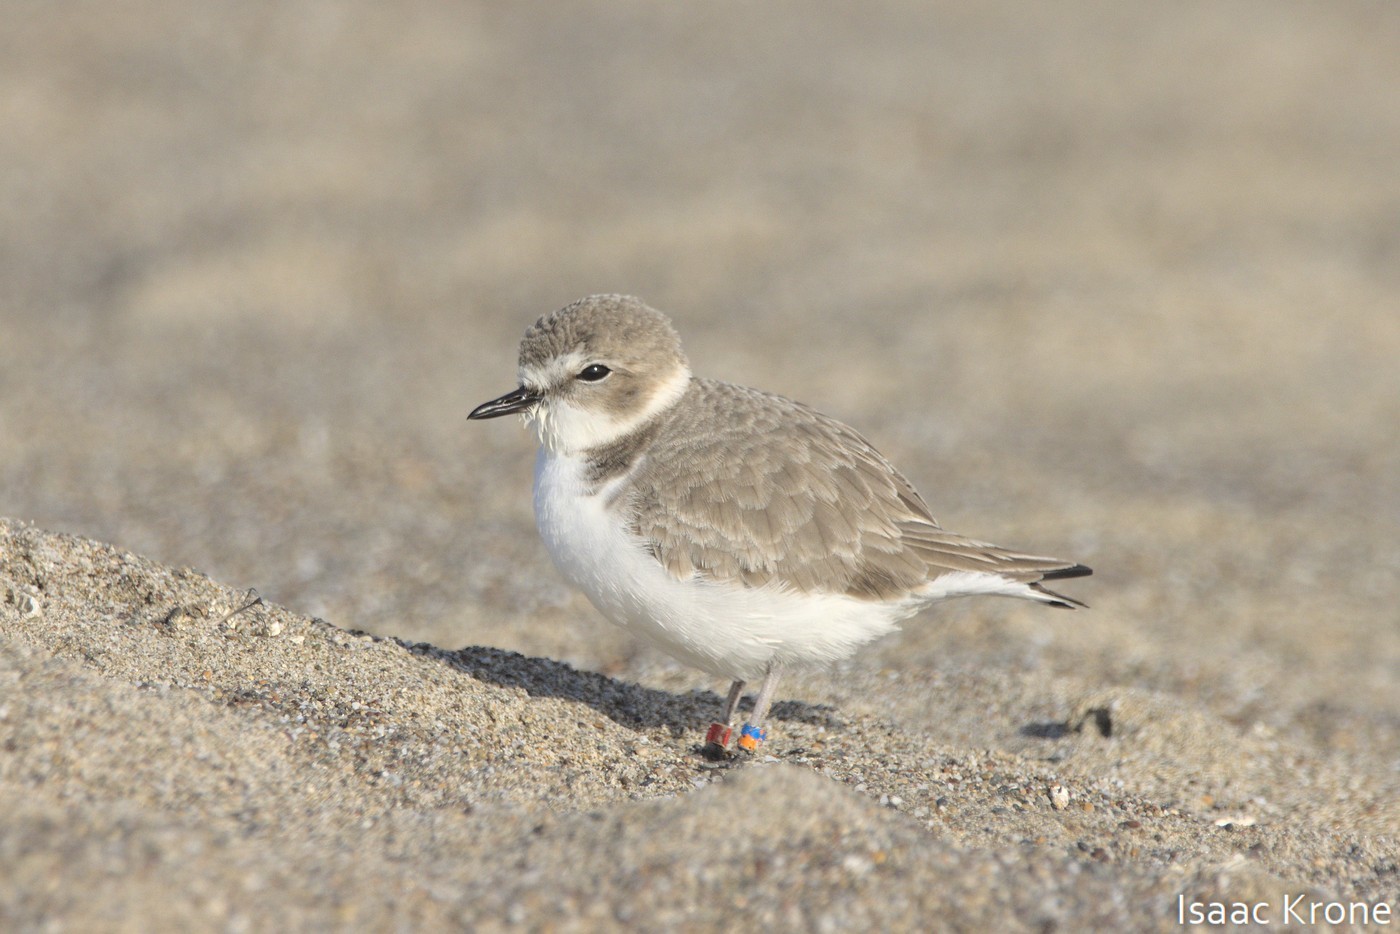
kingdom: Animalia
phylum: Chordata
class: Aves
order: Charadriiformes
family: Charadriidae
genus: Anarhynchus
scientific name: Anarhynchus
